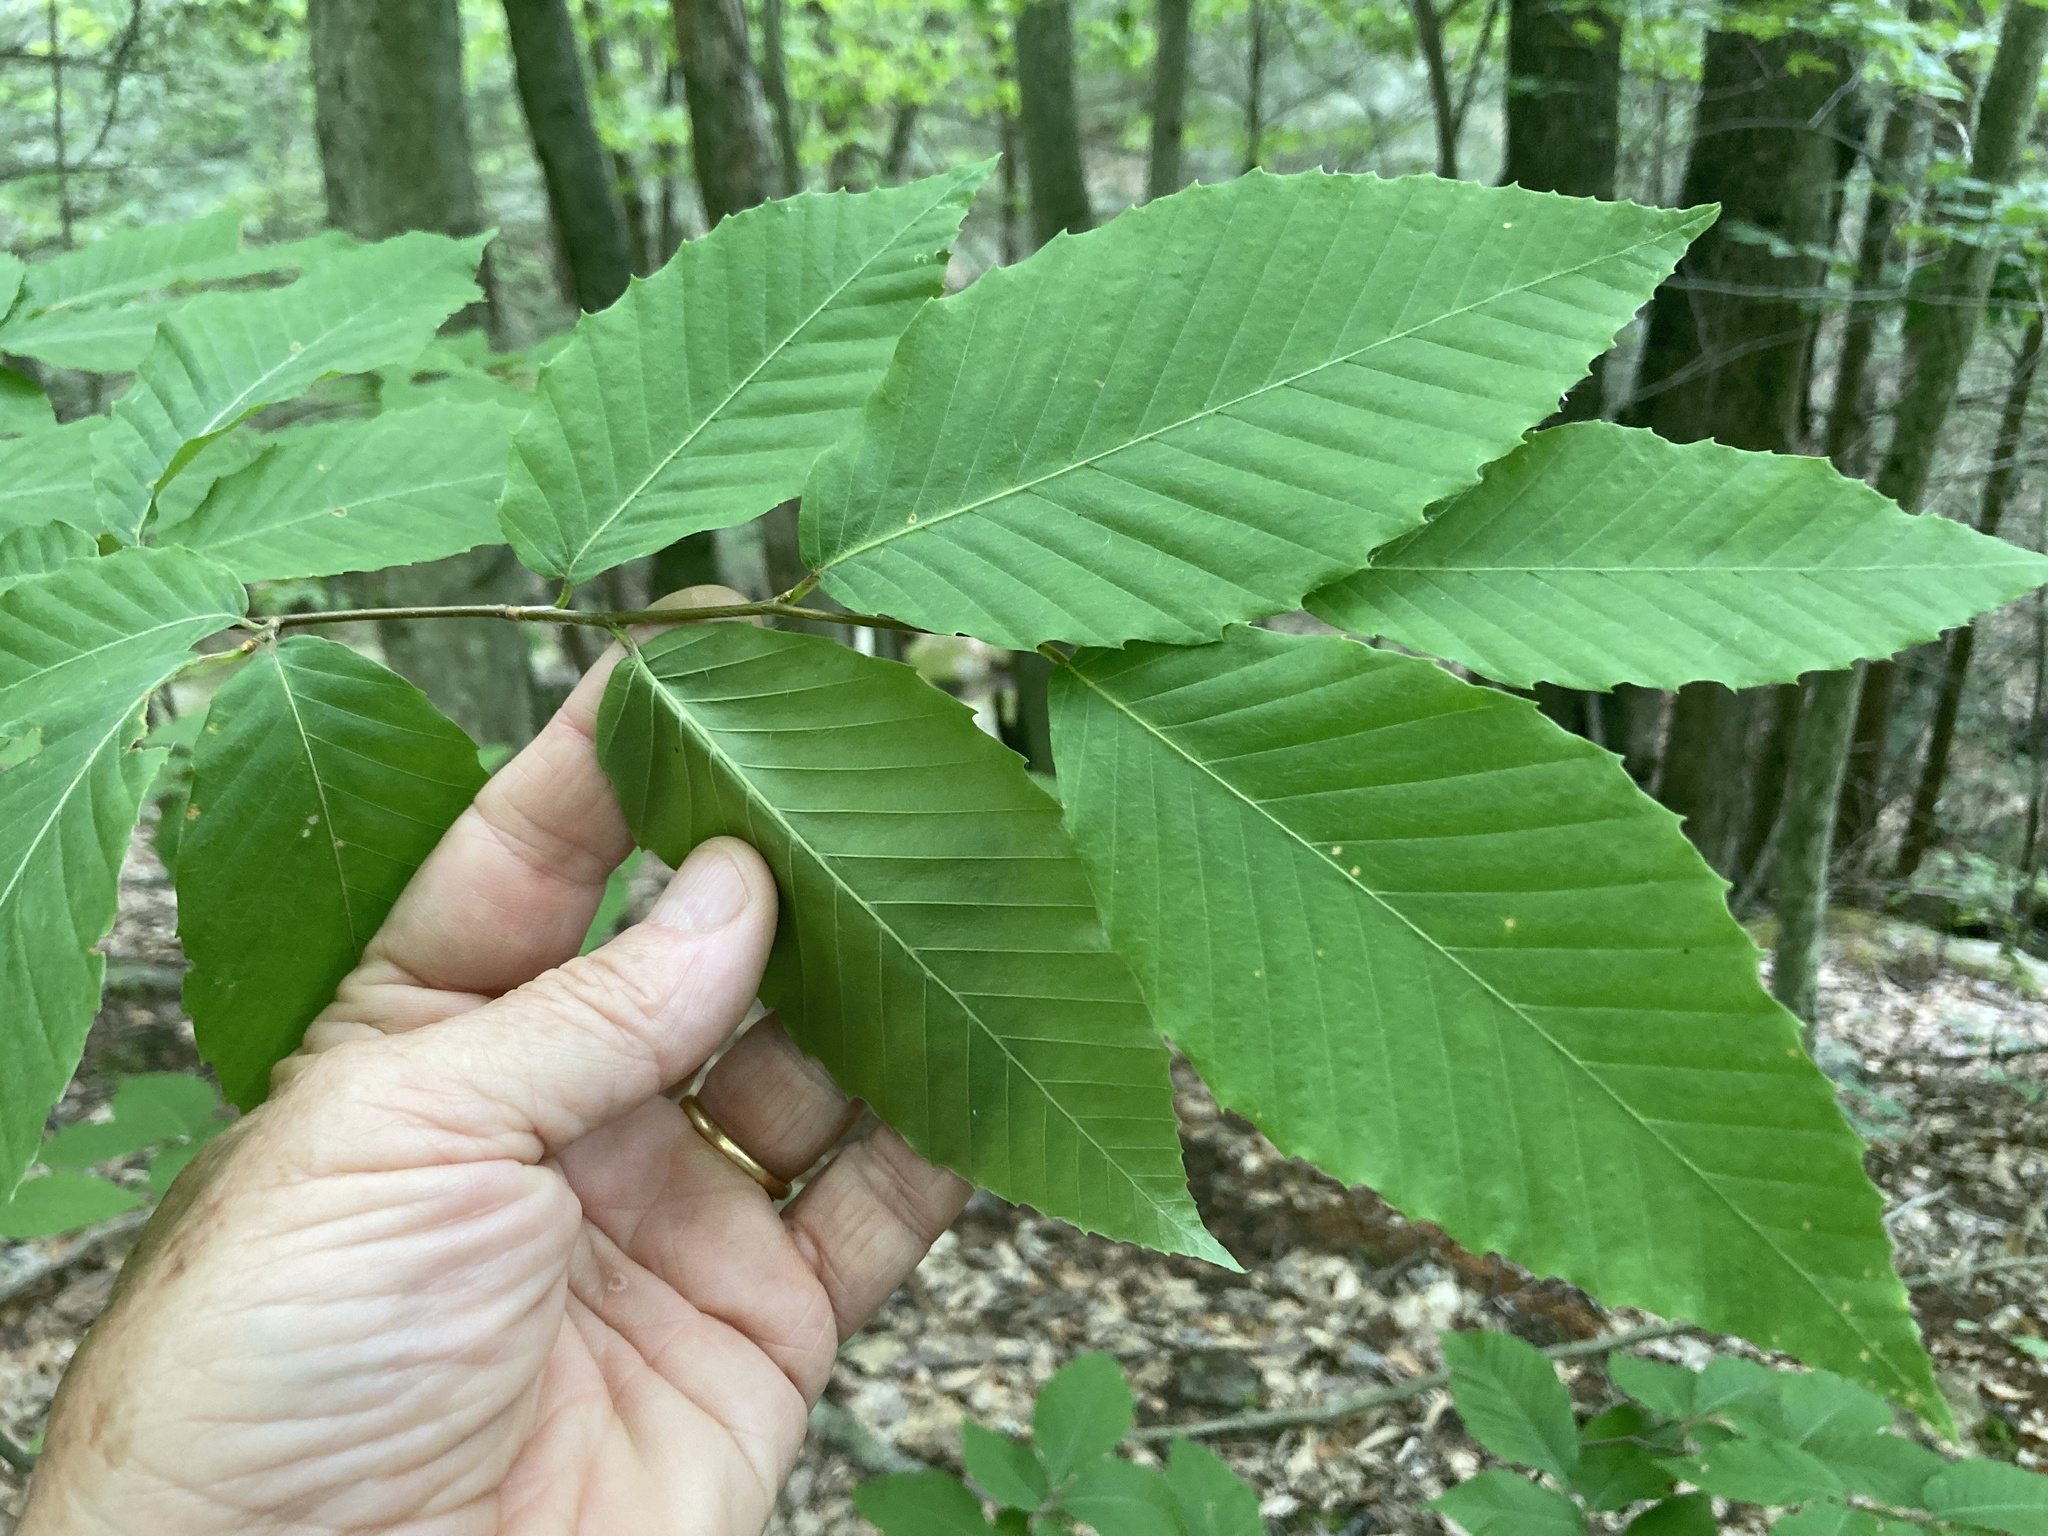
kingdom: Plantae
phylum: Tracheophyta
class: Magnoliopsida
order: Fagales
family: Fagaceae
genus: Fagus
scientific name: Fagus grandifolia
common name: American beech
